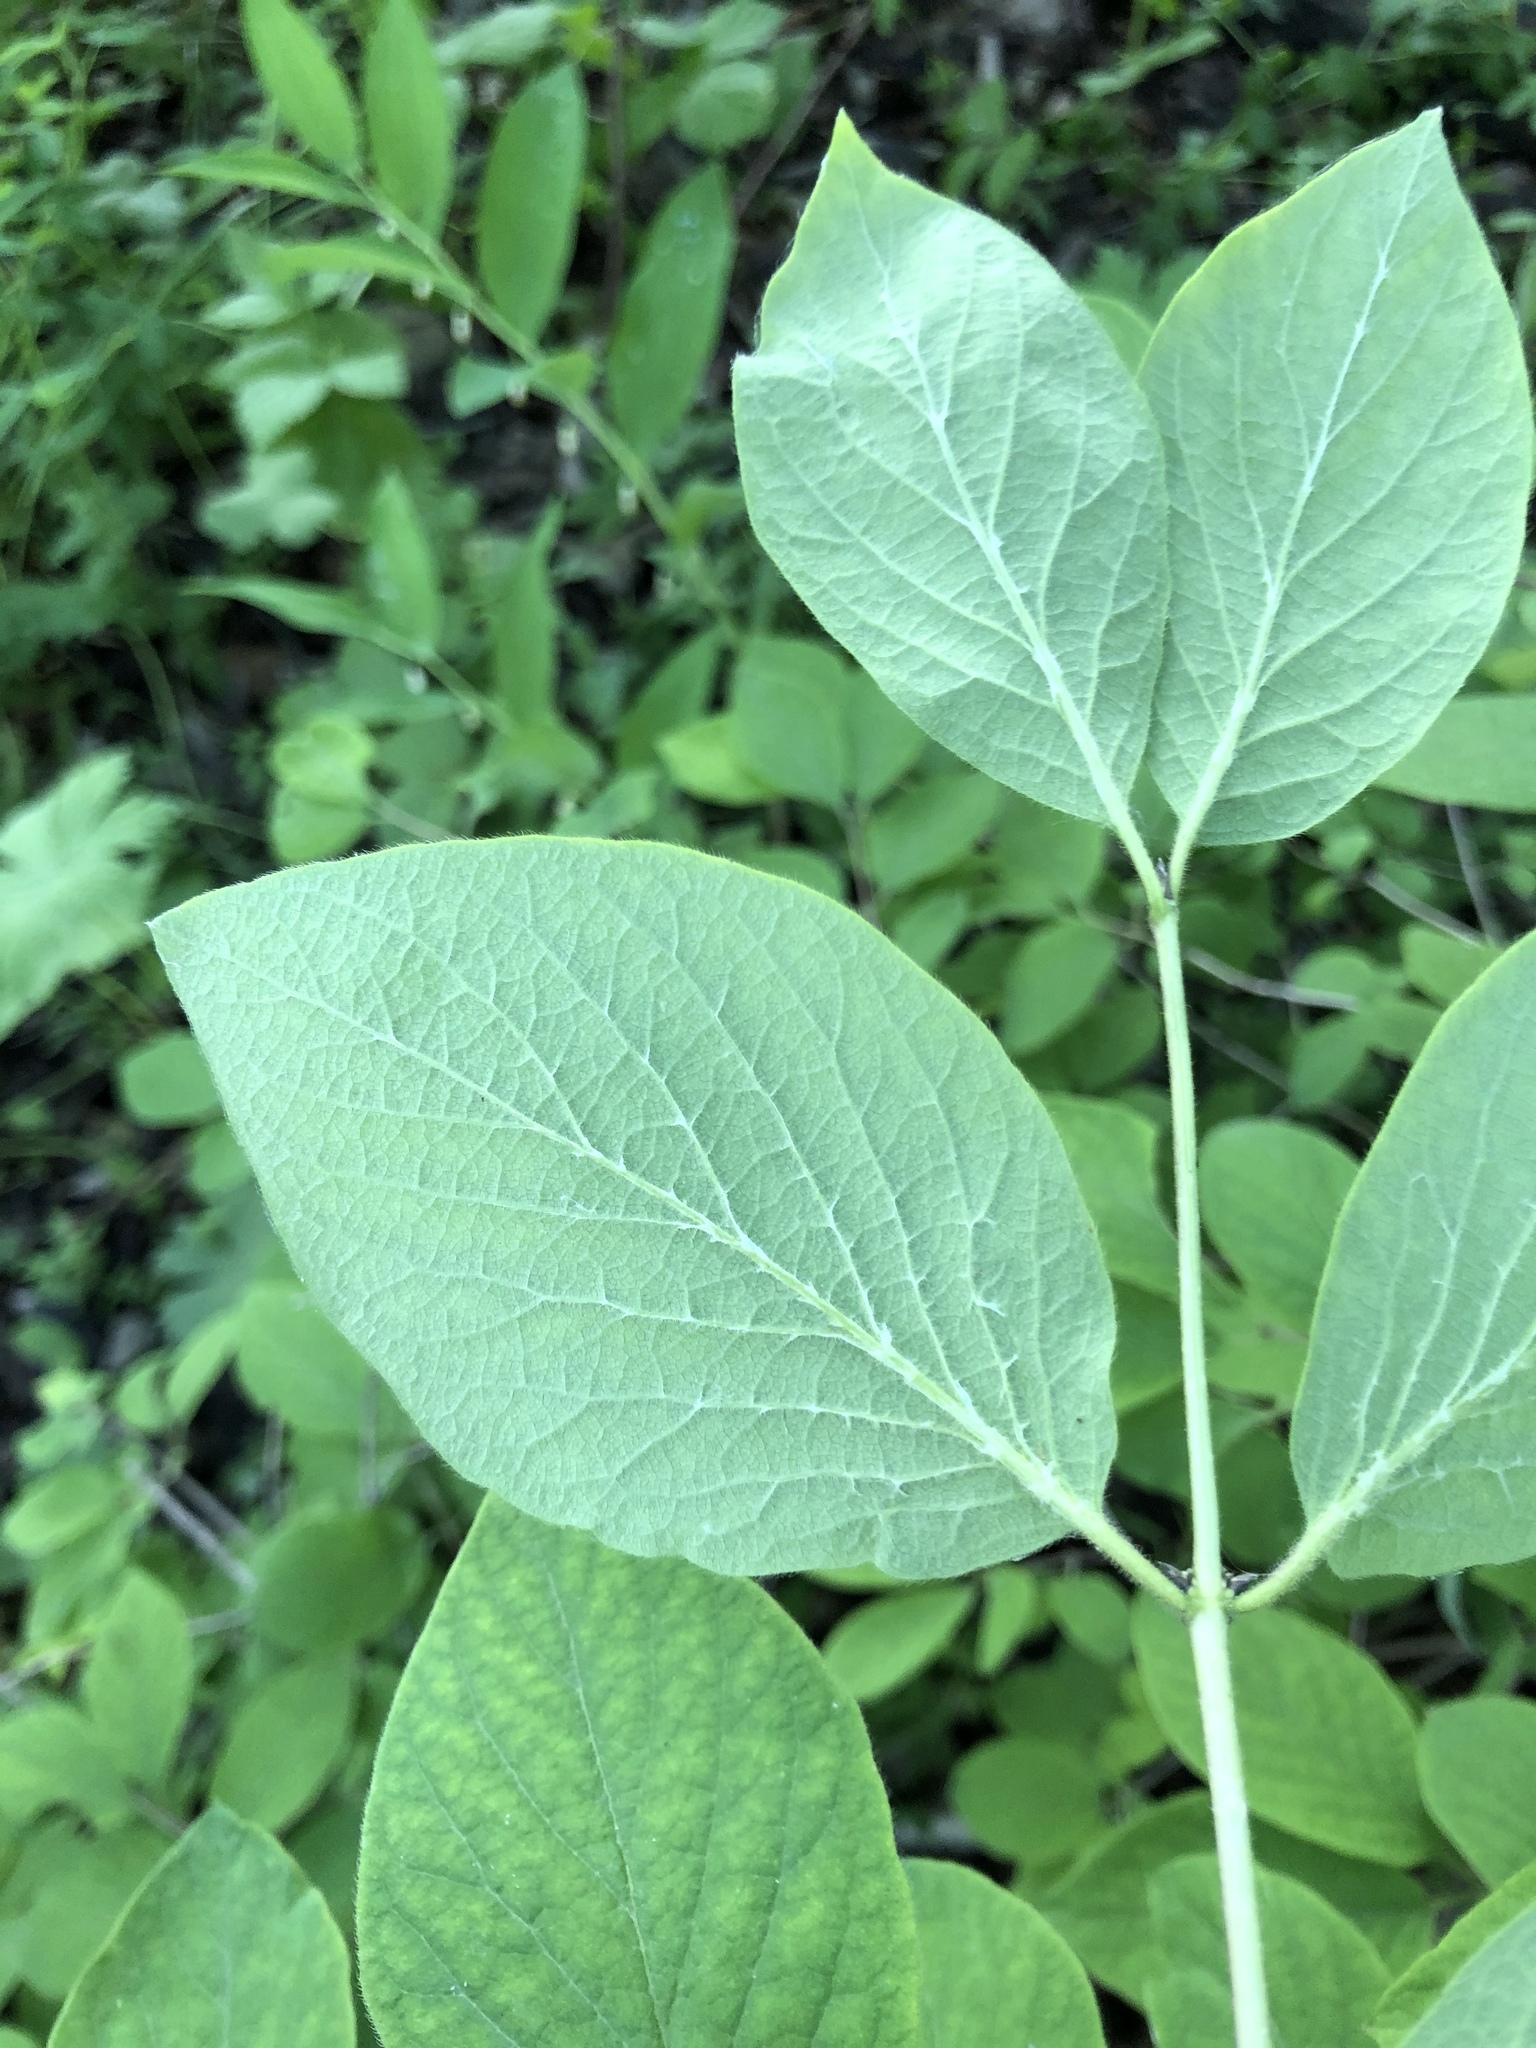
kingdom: Plantae
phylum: Tracheophyta
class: Magnoliopsida
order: Dipsacales
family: Caprifoliaceae
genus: Lonicera
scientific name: Lonicera xylosteum
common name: Fly honeysuckle
